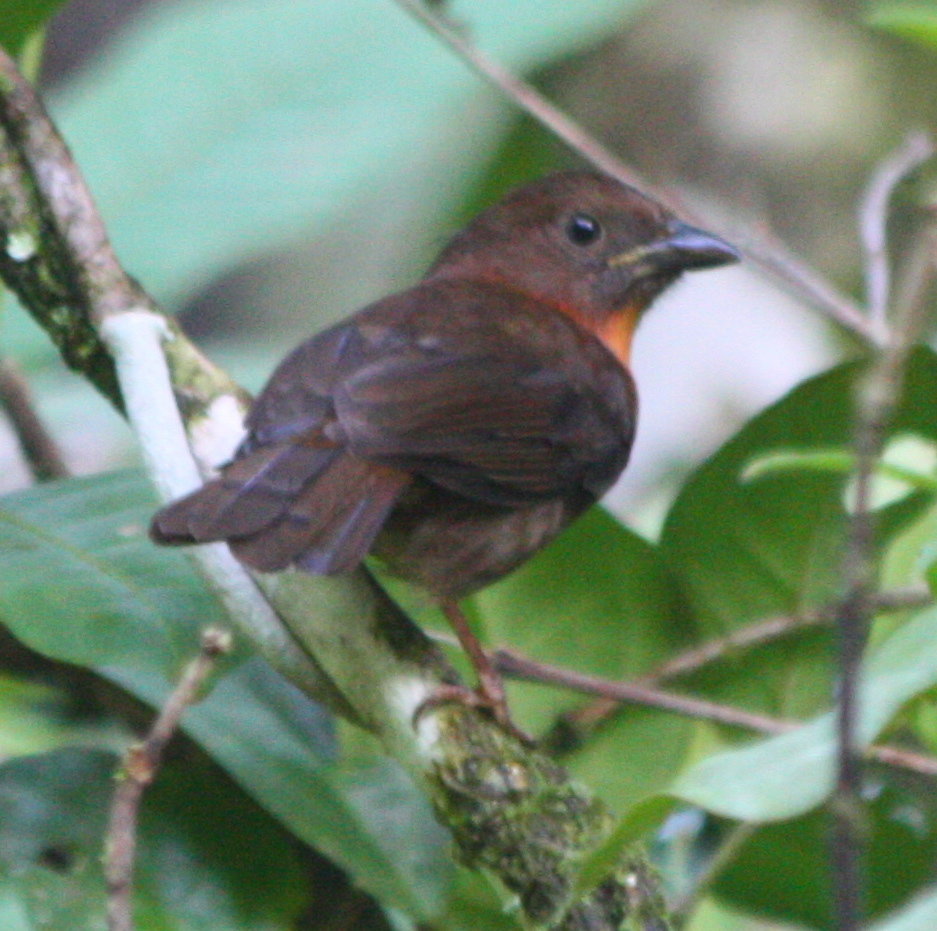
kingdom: Animalia
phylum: Chordata
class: Aves
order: Passeriformes
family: Cardinalidae
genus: Habia
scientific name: Habia fuscicauda
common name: Red-throated ant-tanager
